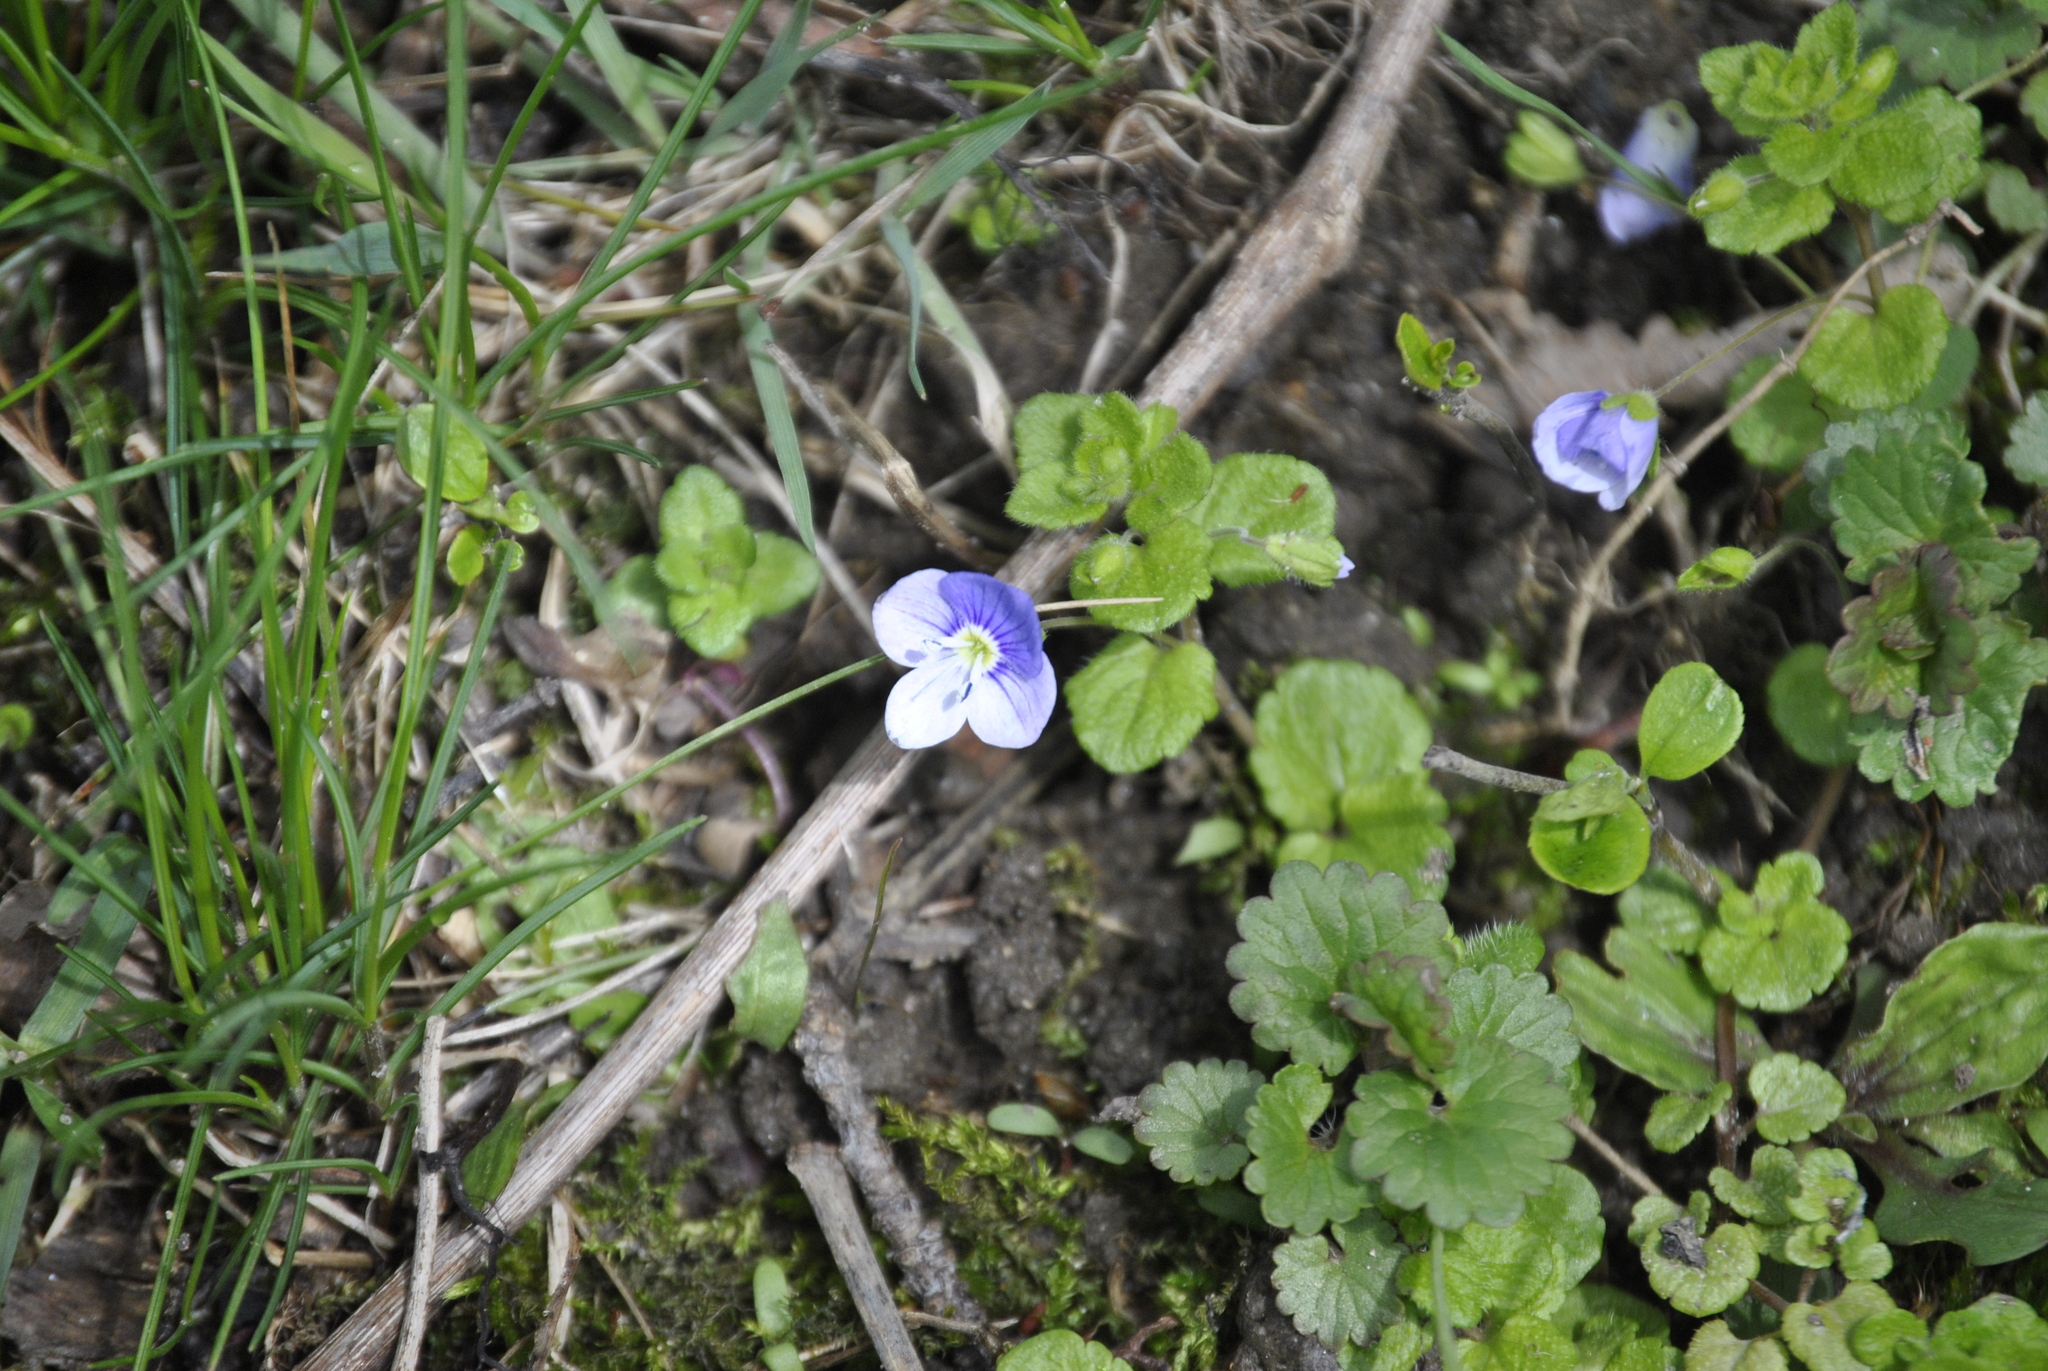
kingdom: Plantae
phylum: Tracheophyta
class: Magnoliopsida
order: Lamiales
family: Plantaginaceae
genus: Veronica
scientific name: Veronica filiformis
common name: Slender speedwell
